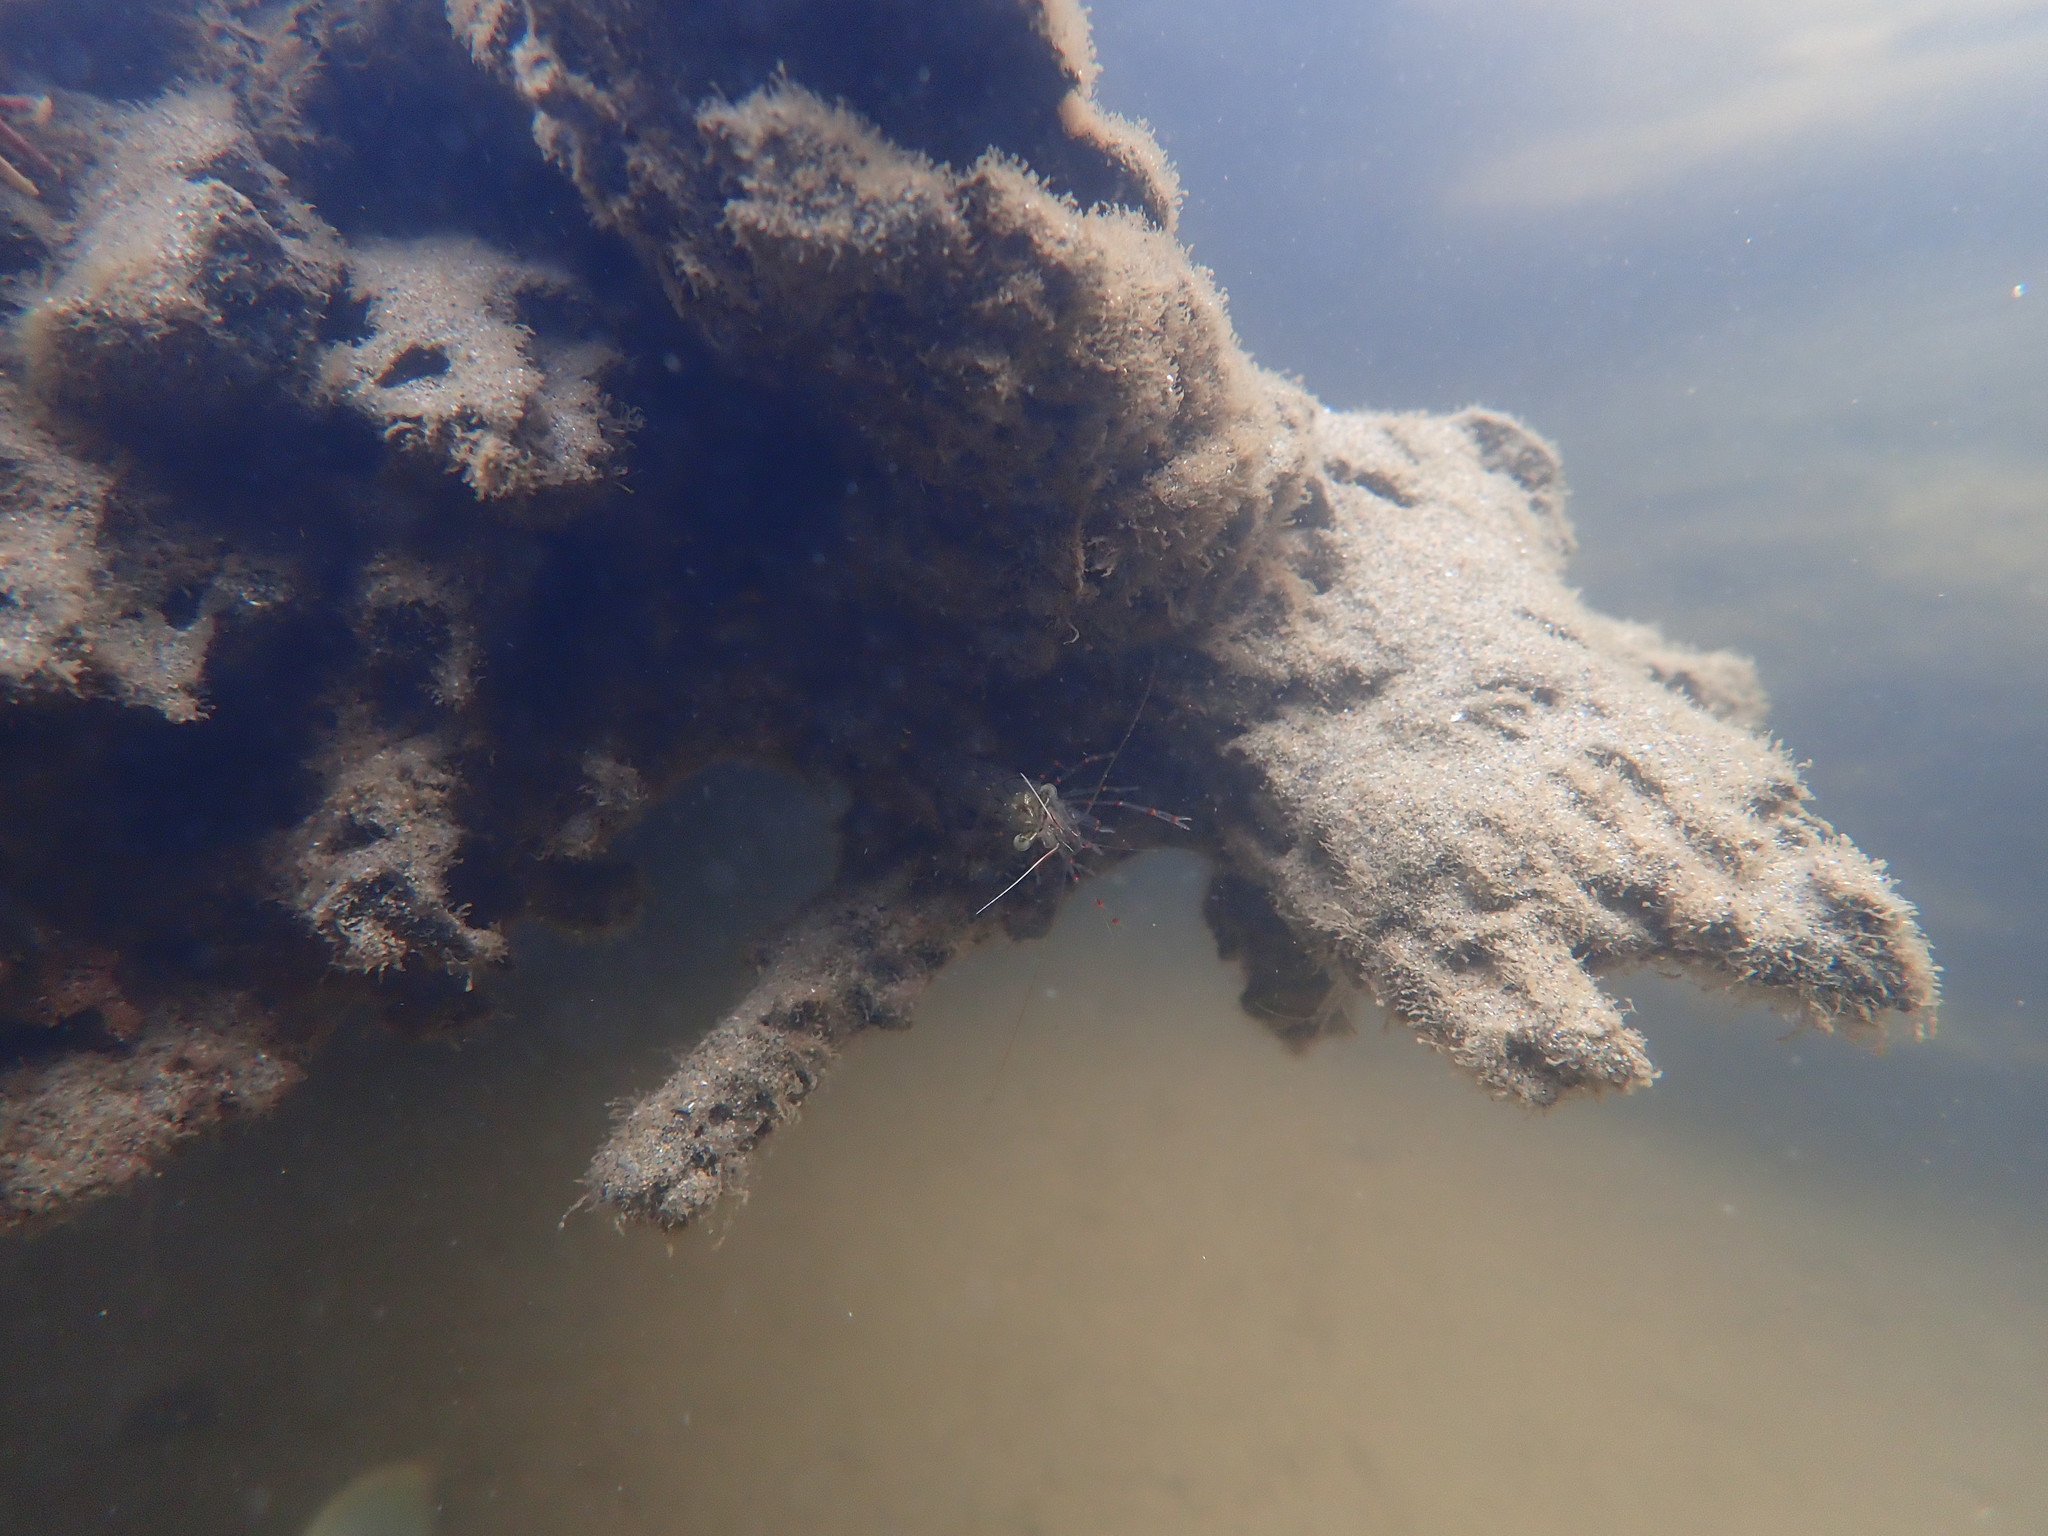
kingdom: Animalia
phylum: Arthropoda
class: Malacostraca
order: Decapoda
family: Palaemonidae
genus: Palaemon
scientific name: Palaemon affinis
